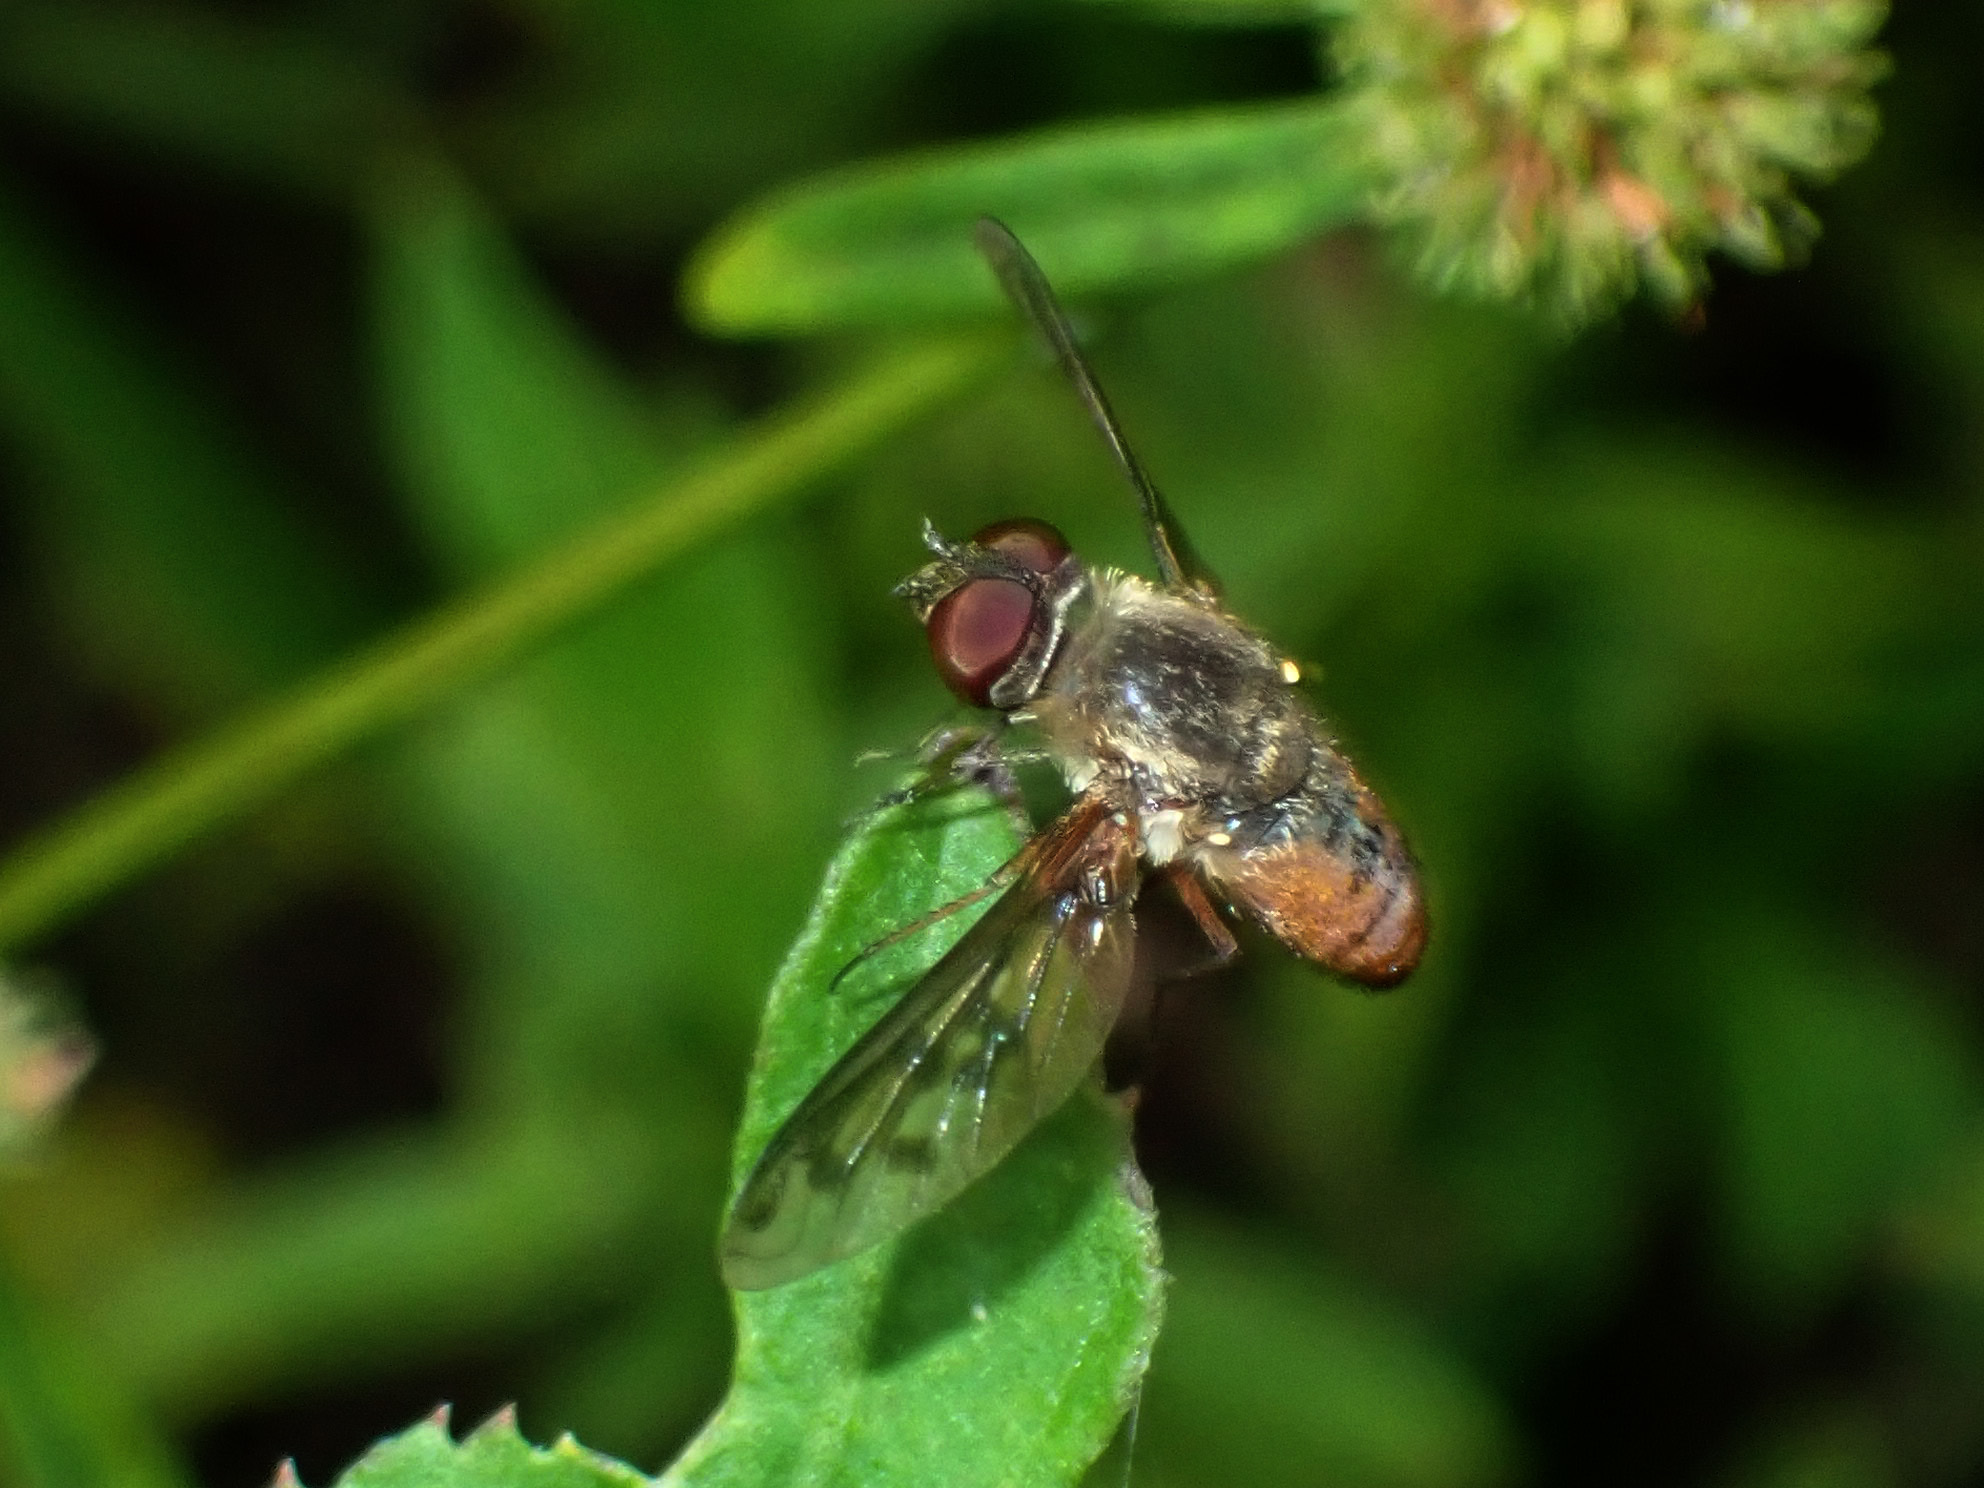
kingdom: Animalia
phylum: Arthropoda
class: Insecta
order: Diptera
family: Bombyliidae
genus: Neodiplocampta
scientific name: Neodiplocampta miranda
